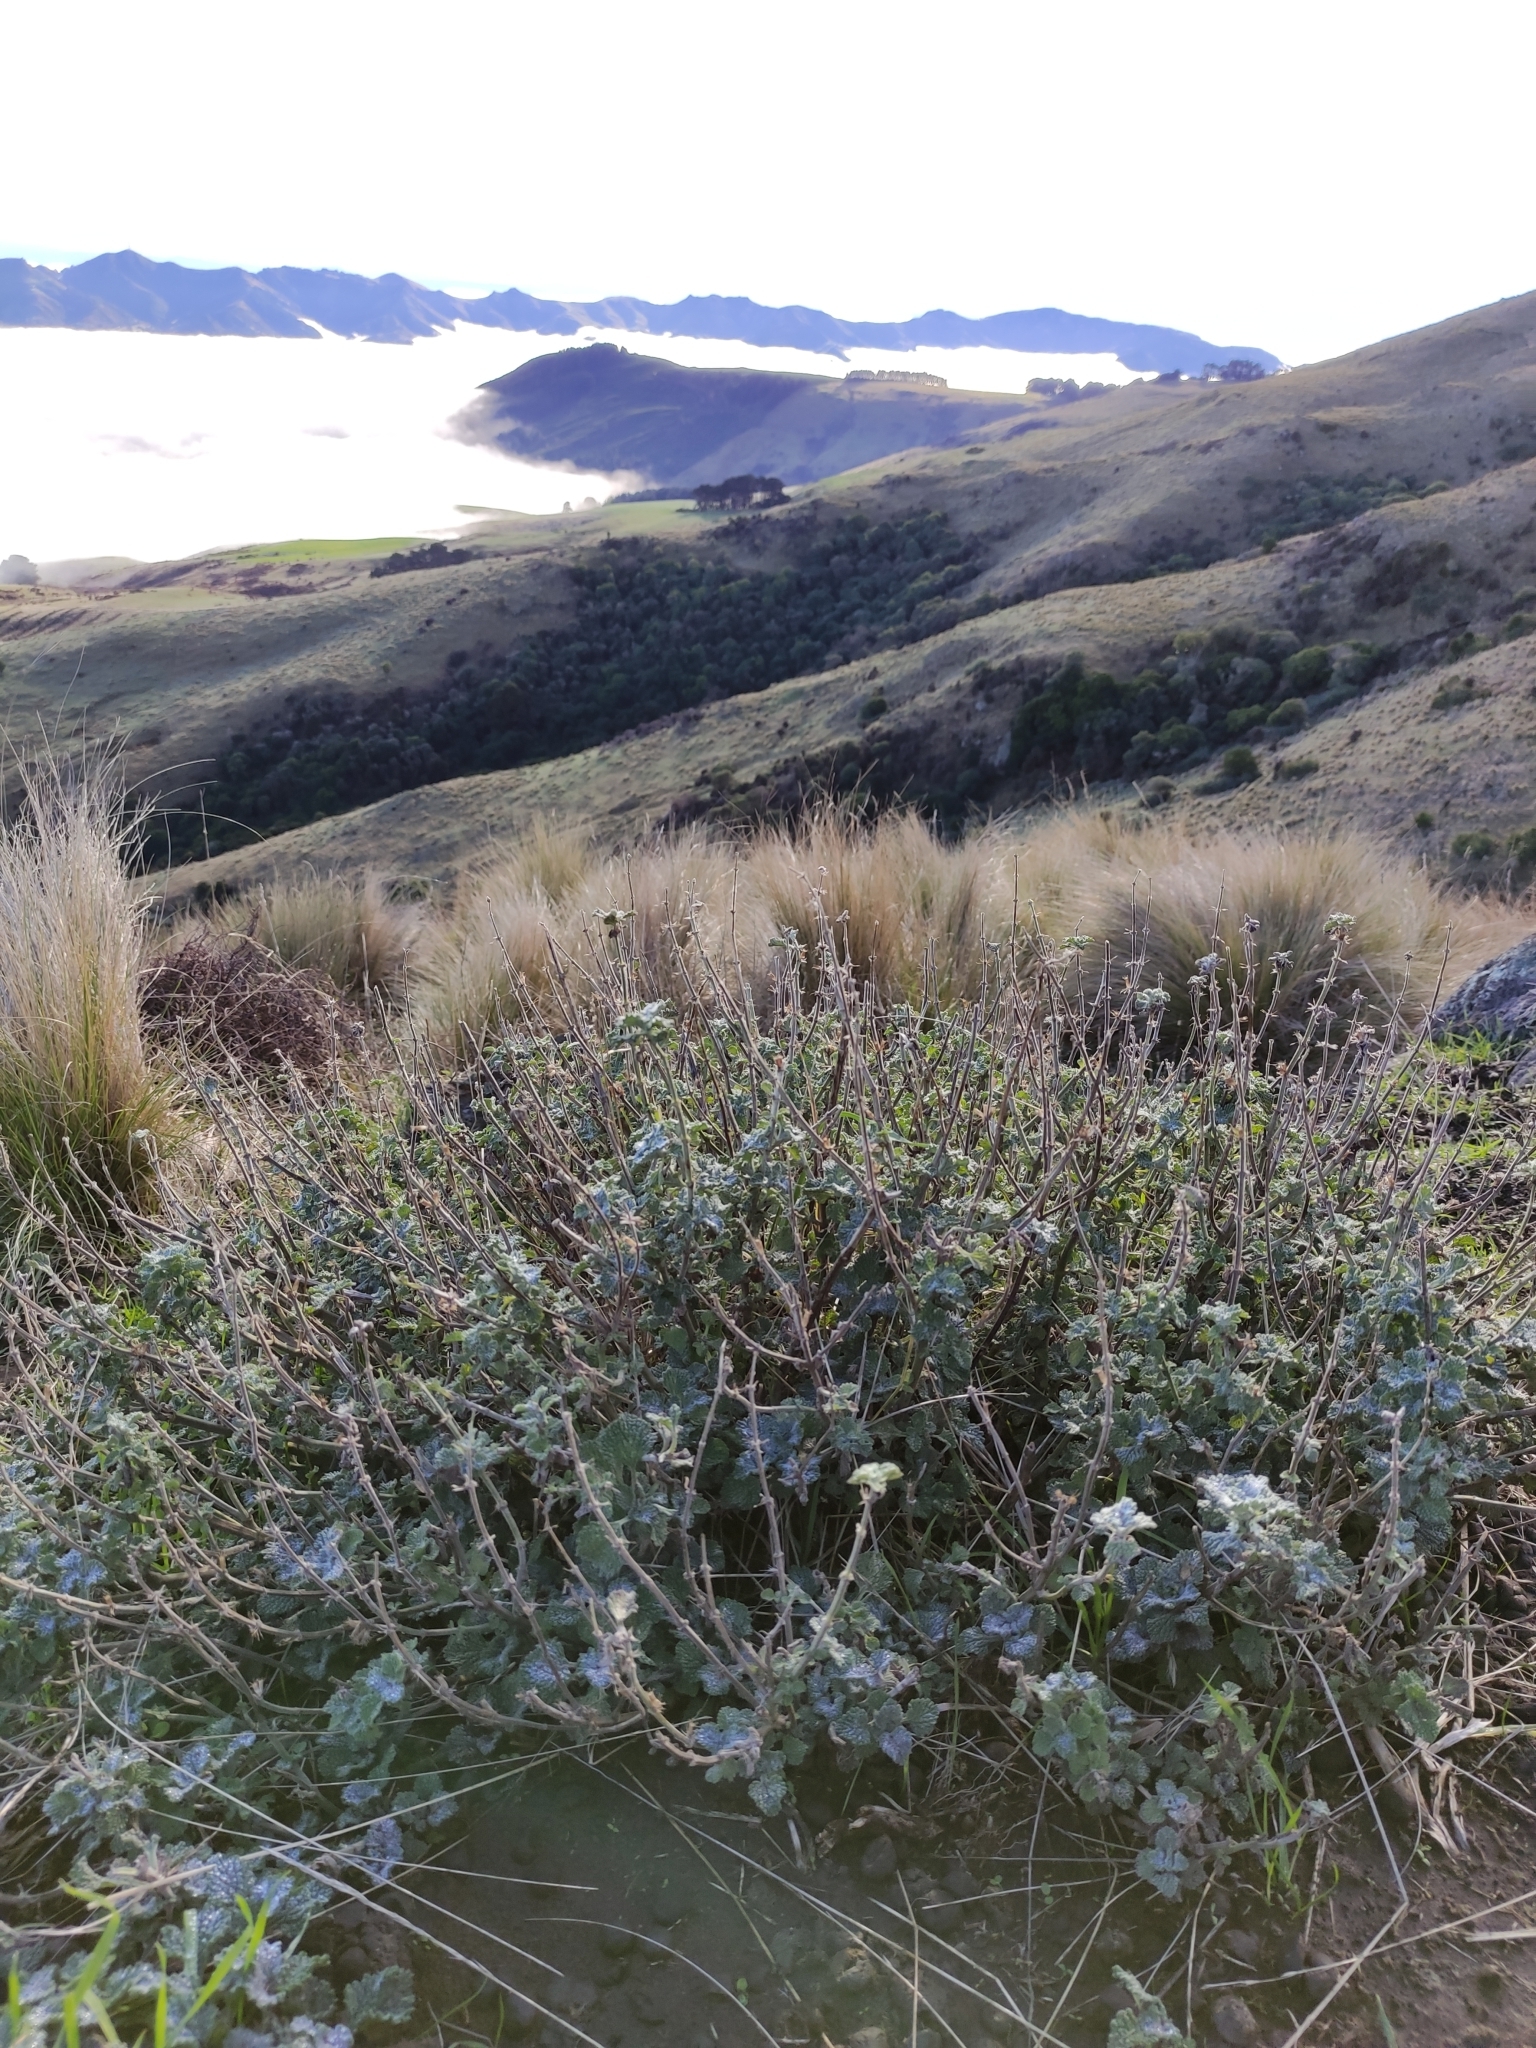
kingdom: Plantae
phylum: Tracheophyta
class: Magnoliopsida
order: Lamiales
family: Lamiaceae
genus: Marrubium
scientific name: Marrubium vulgare
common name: Horehound
